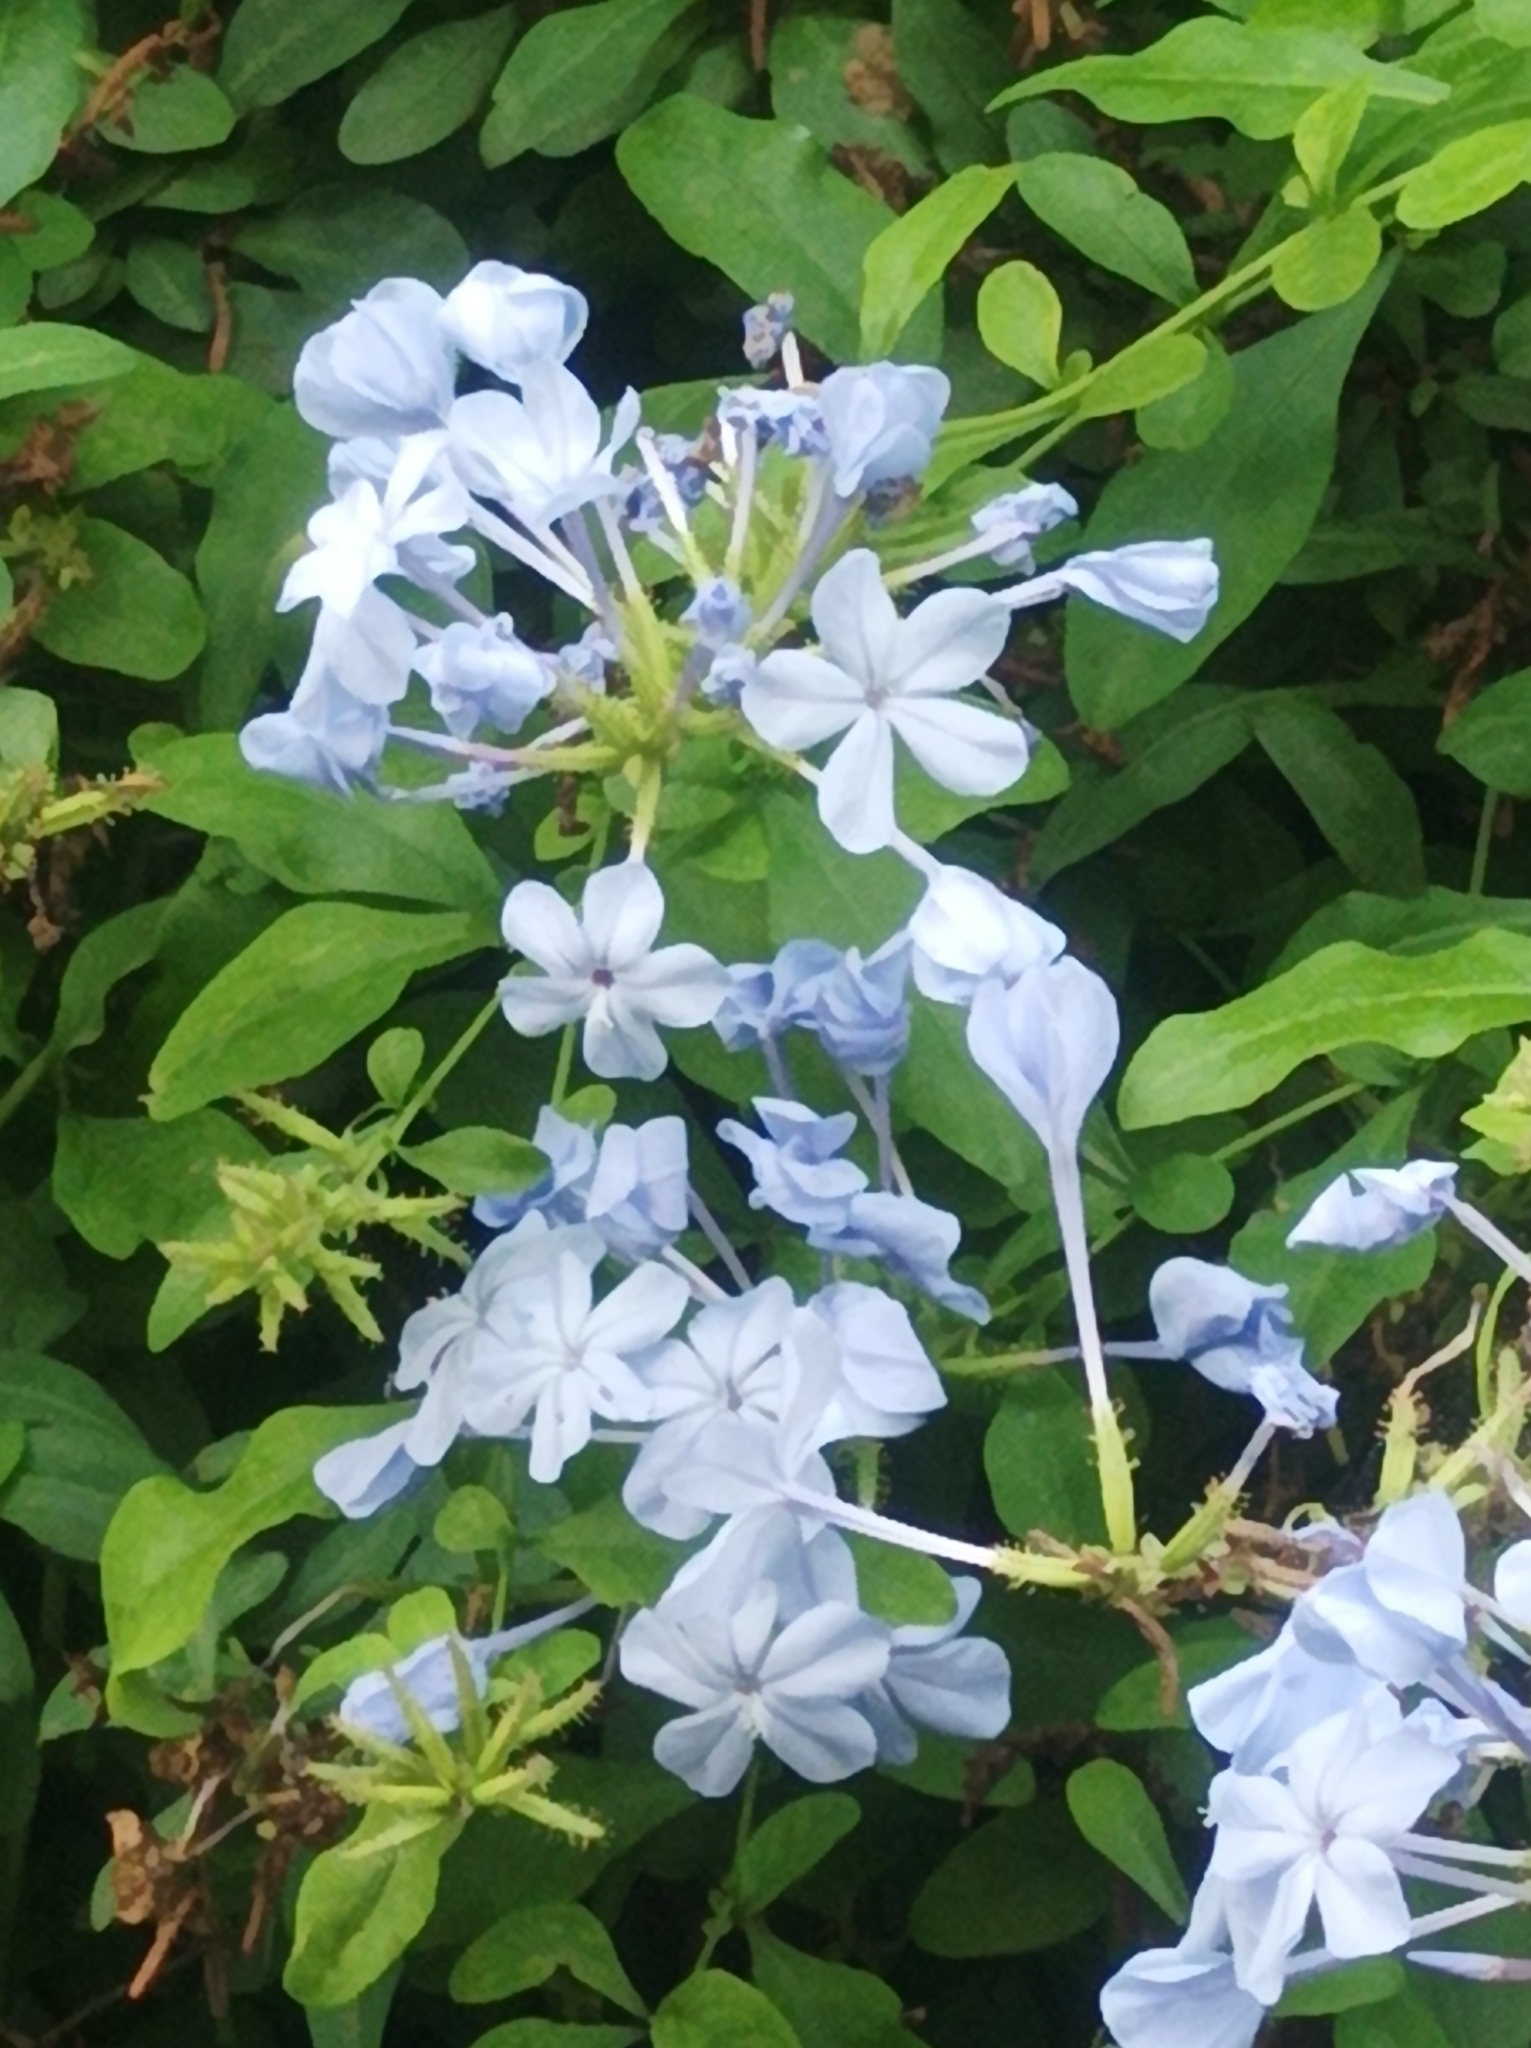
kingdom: Plantae
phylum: Tracheophyta
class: Magnoliopsida
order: Caryophyllales
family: Plumbaginaceae
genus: Plumbago
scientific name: Plumbago auriculata
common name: Cape leadwort
